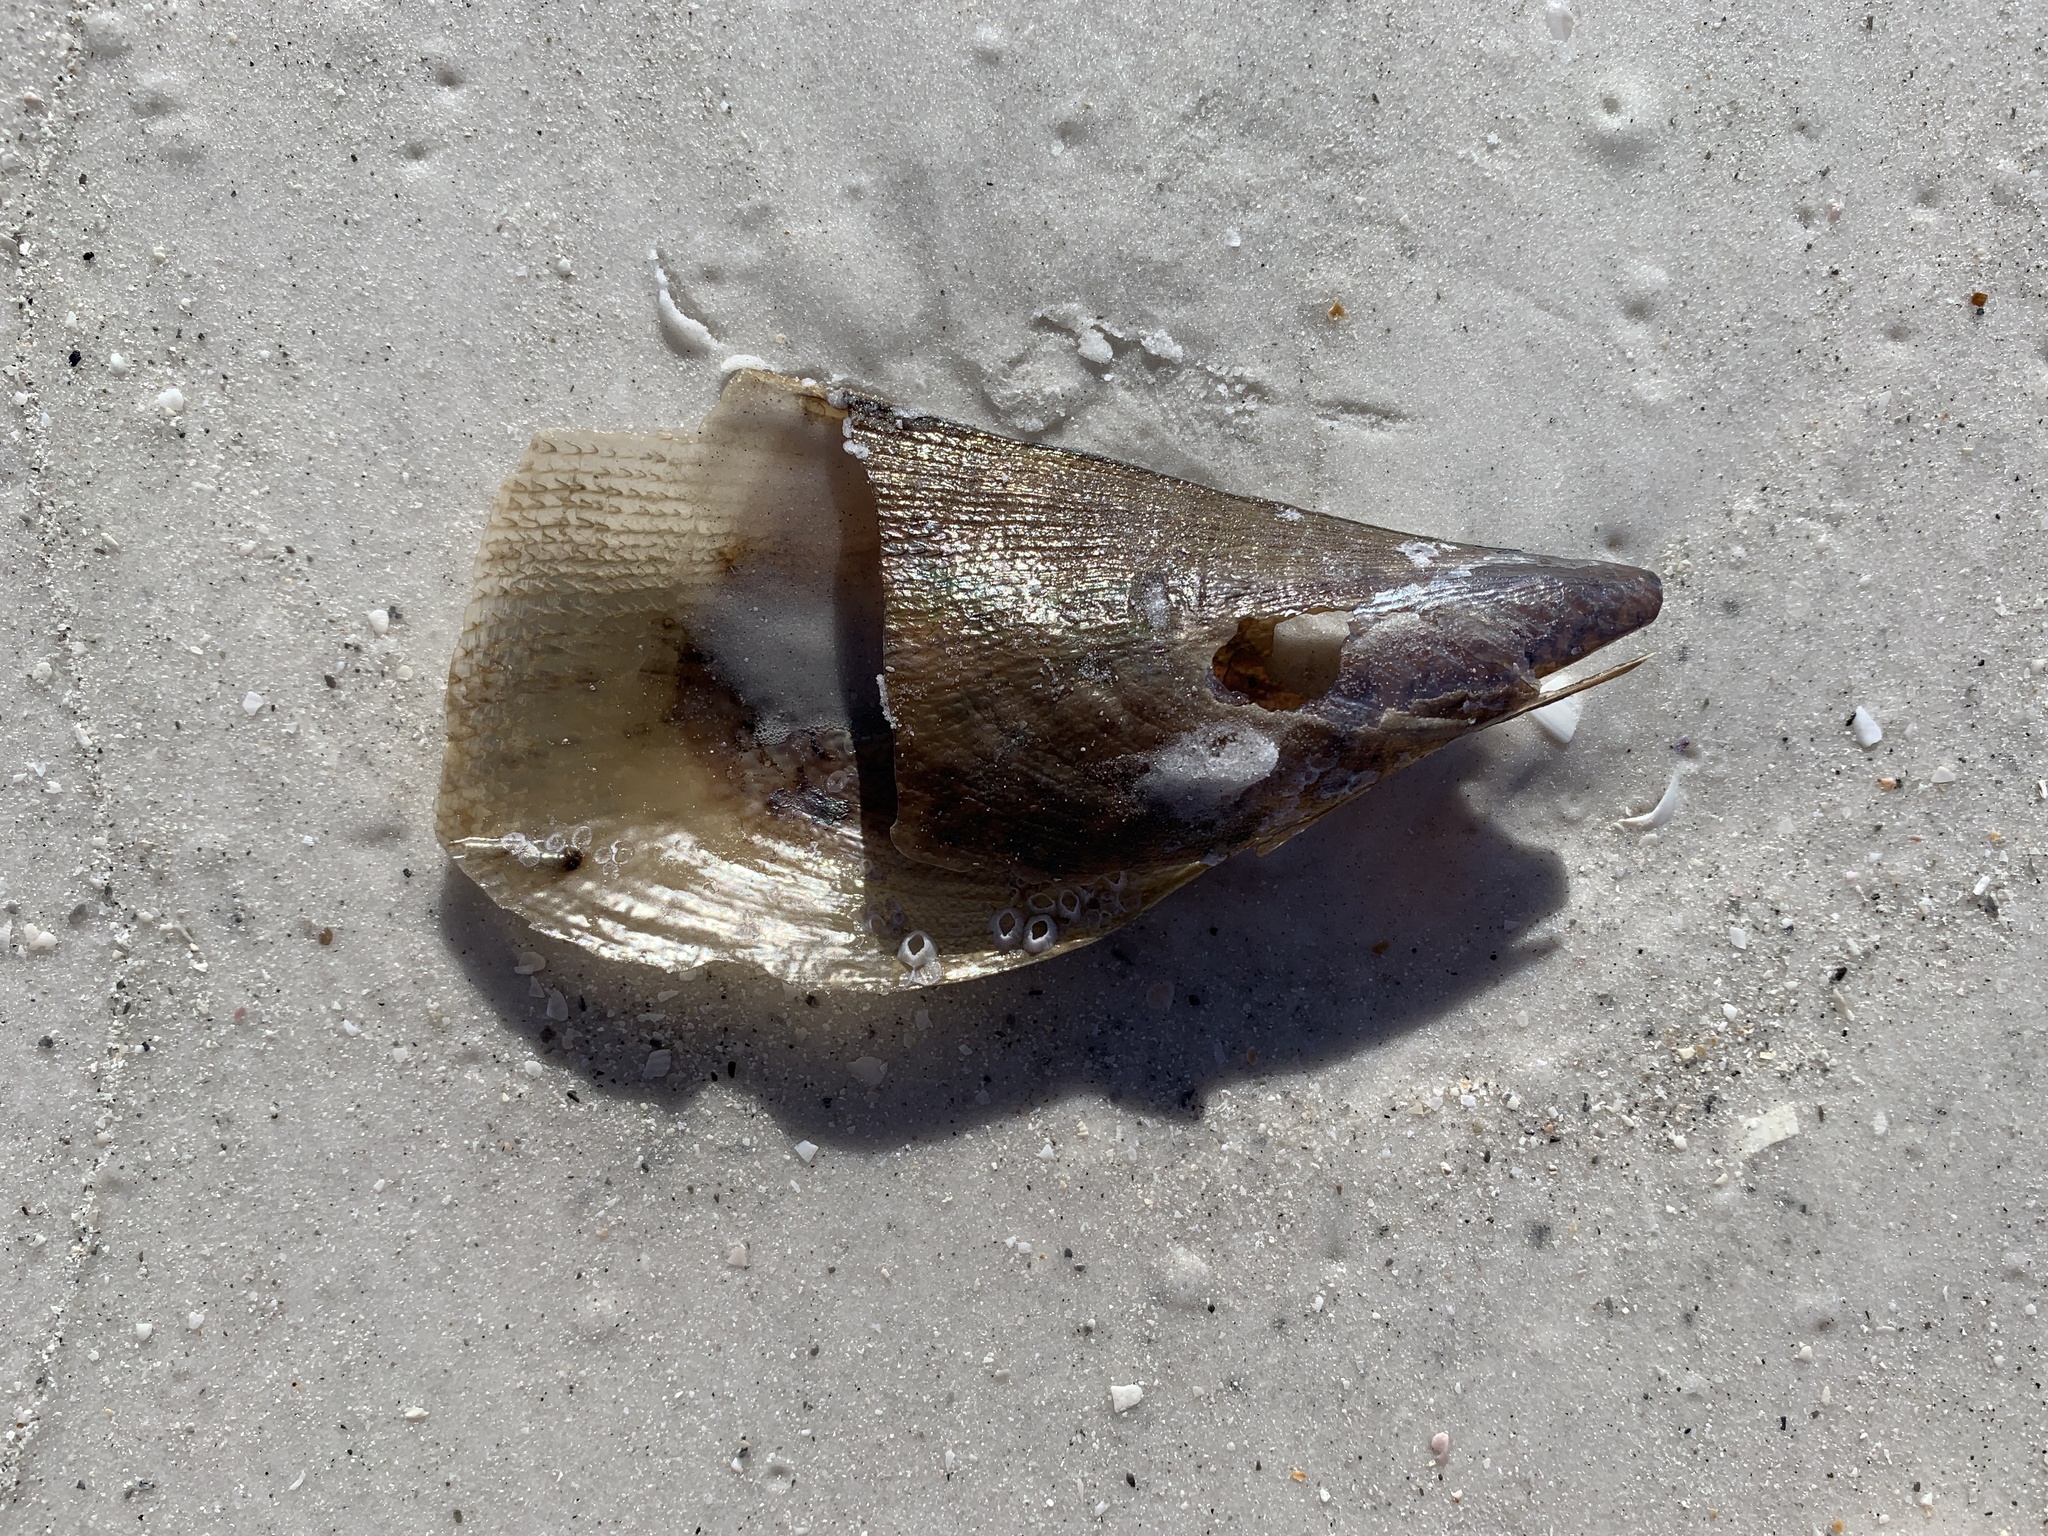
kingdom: Animalia
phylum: Mollusca
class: Bivalvia
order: Ostreida
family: Pinnidae
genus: Atrina
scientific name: Atrina serrata
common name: Saw-toothed penshell
